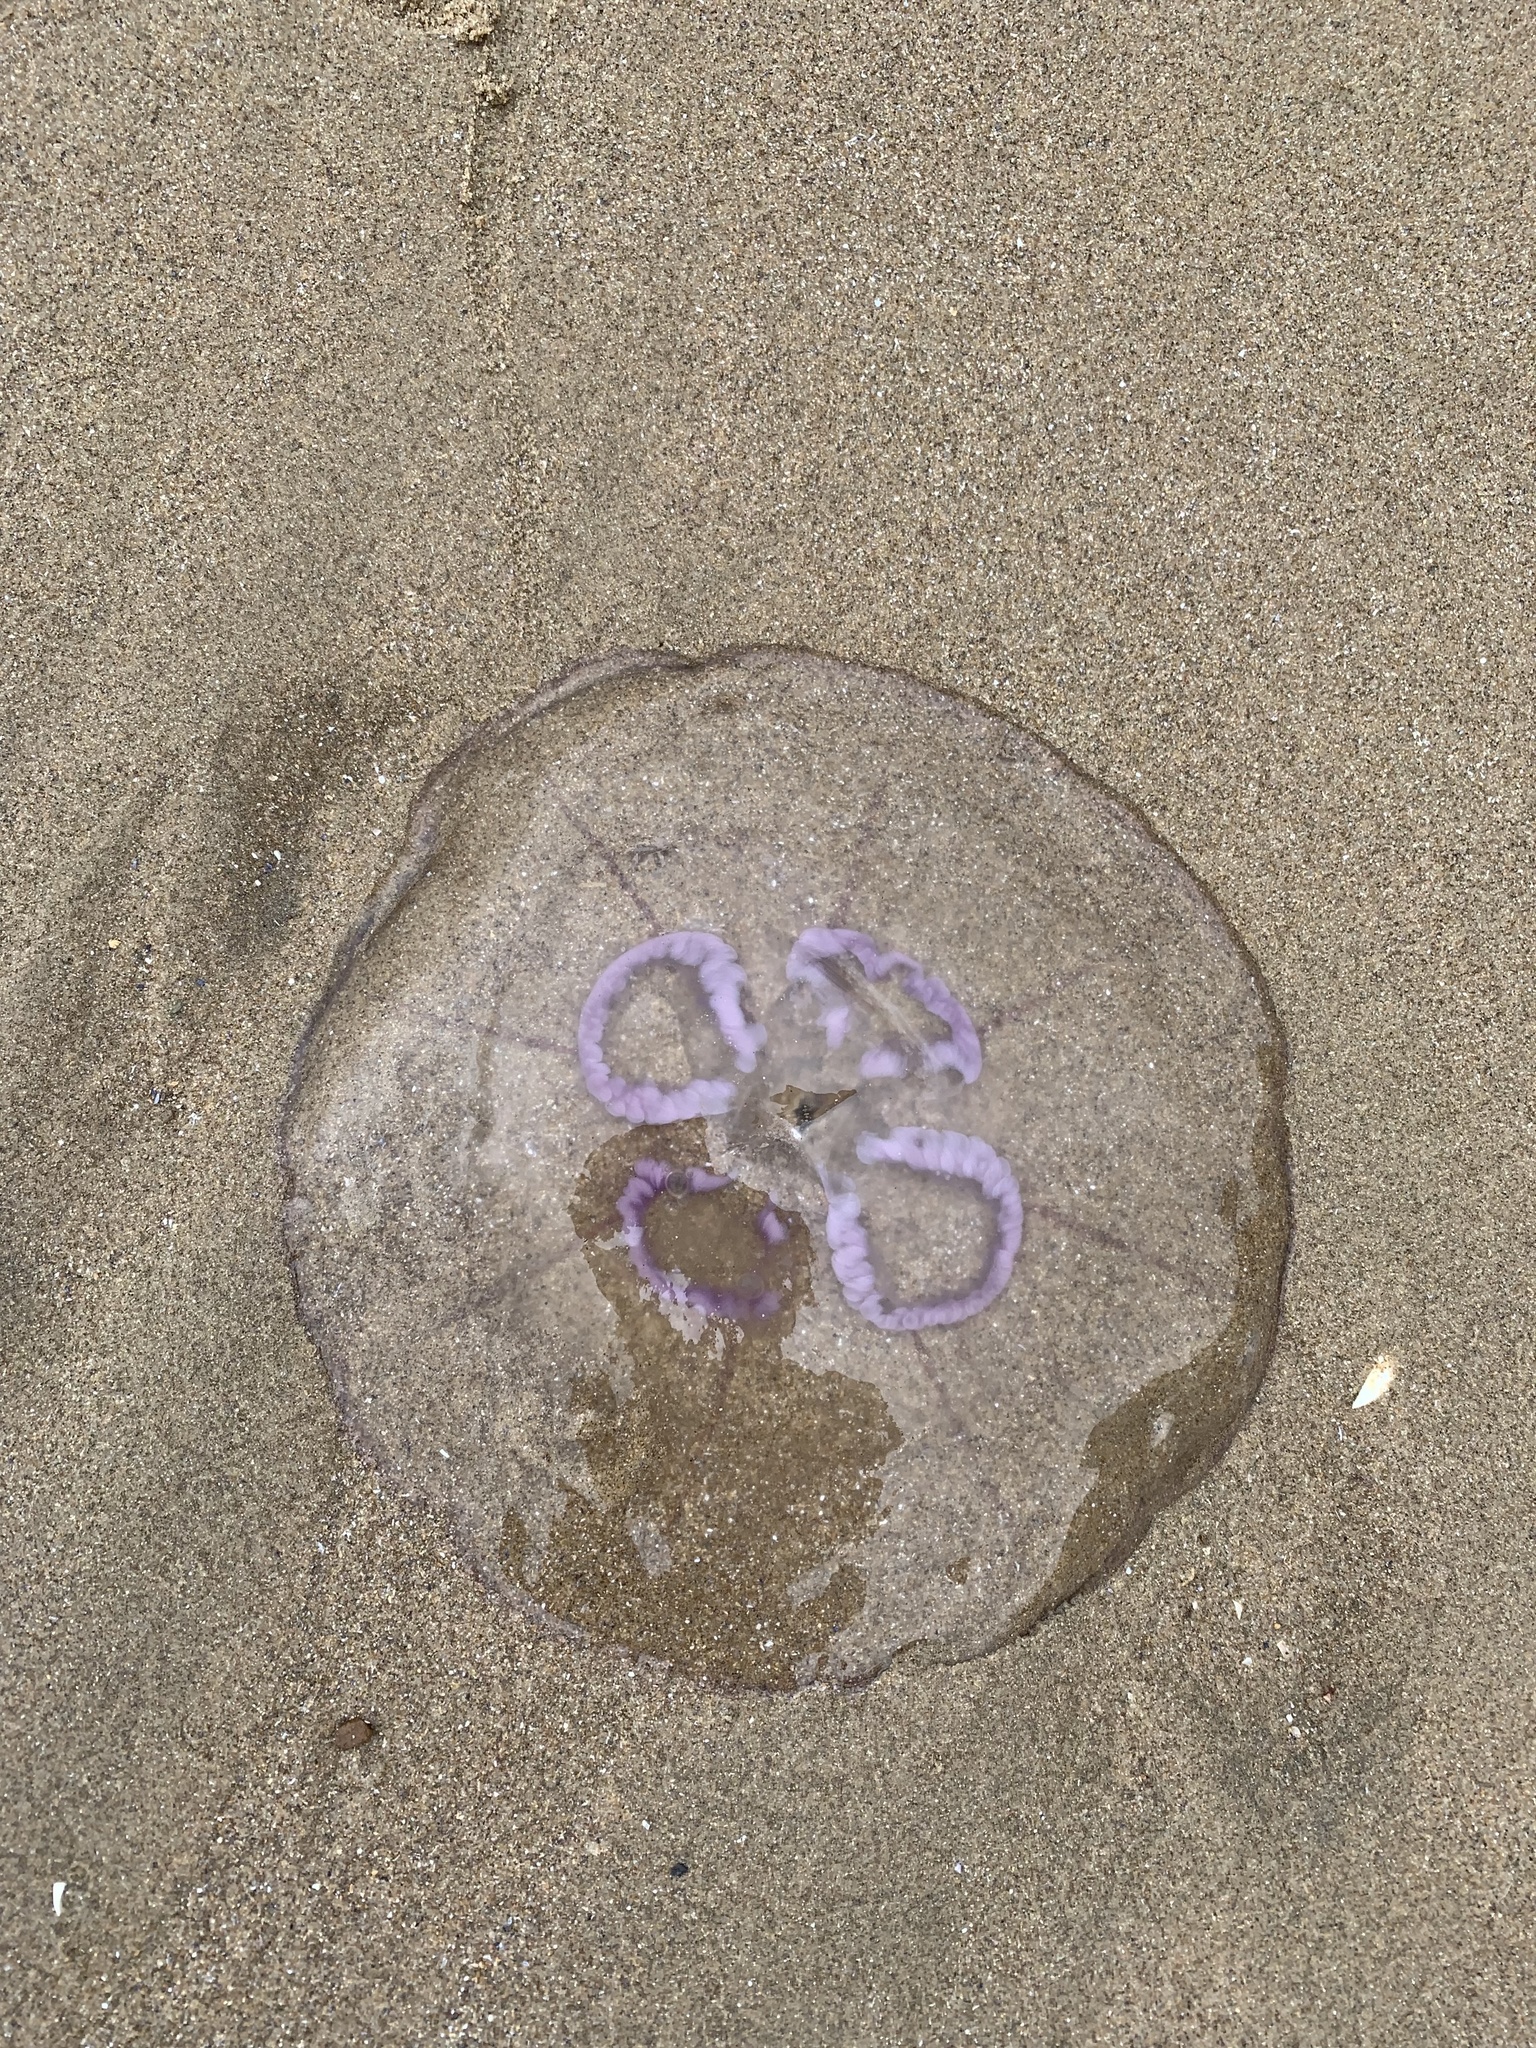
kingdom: Animalia
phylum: Cnidaria
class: Scyphozoa
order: Semaeostomeae
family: Ulmaridae
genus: Aurelia
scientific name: Aurelia aurita
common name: Moon jellyfish
